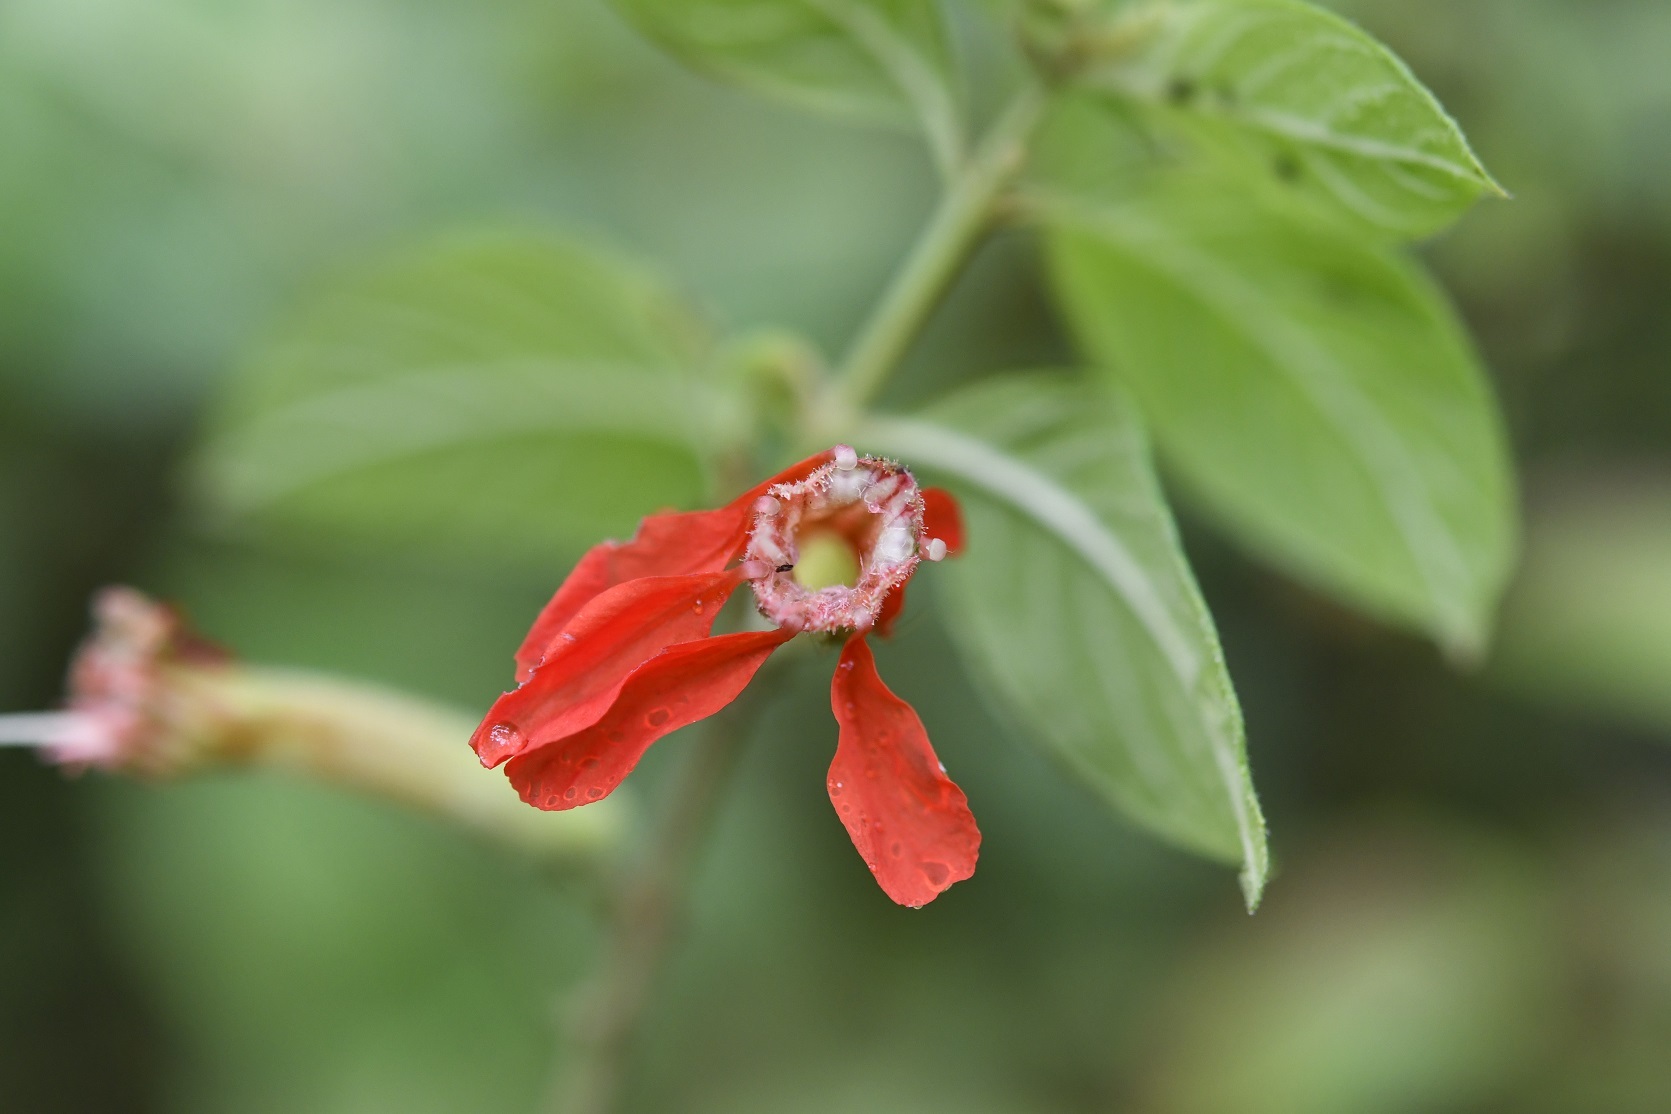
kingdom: Plantae
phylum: Tracheophyta
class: Magnoliopsida
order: Myrtales
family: Lythraceae
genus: Cuphea
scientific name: Cuphea intermedia
